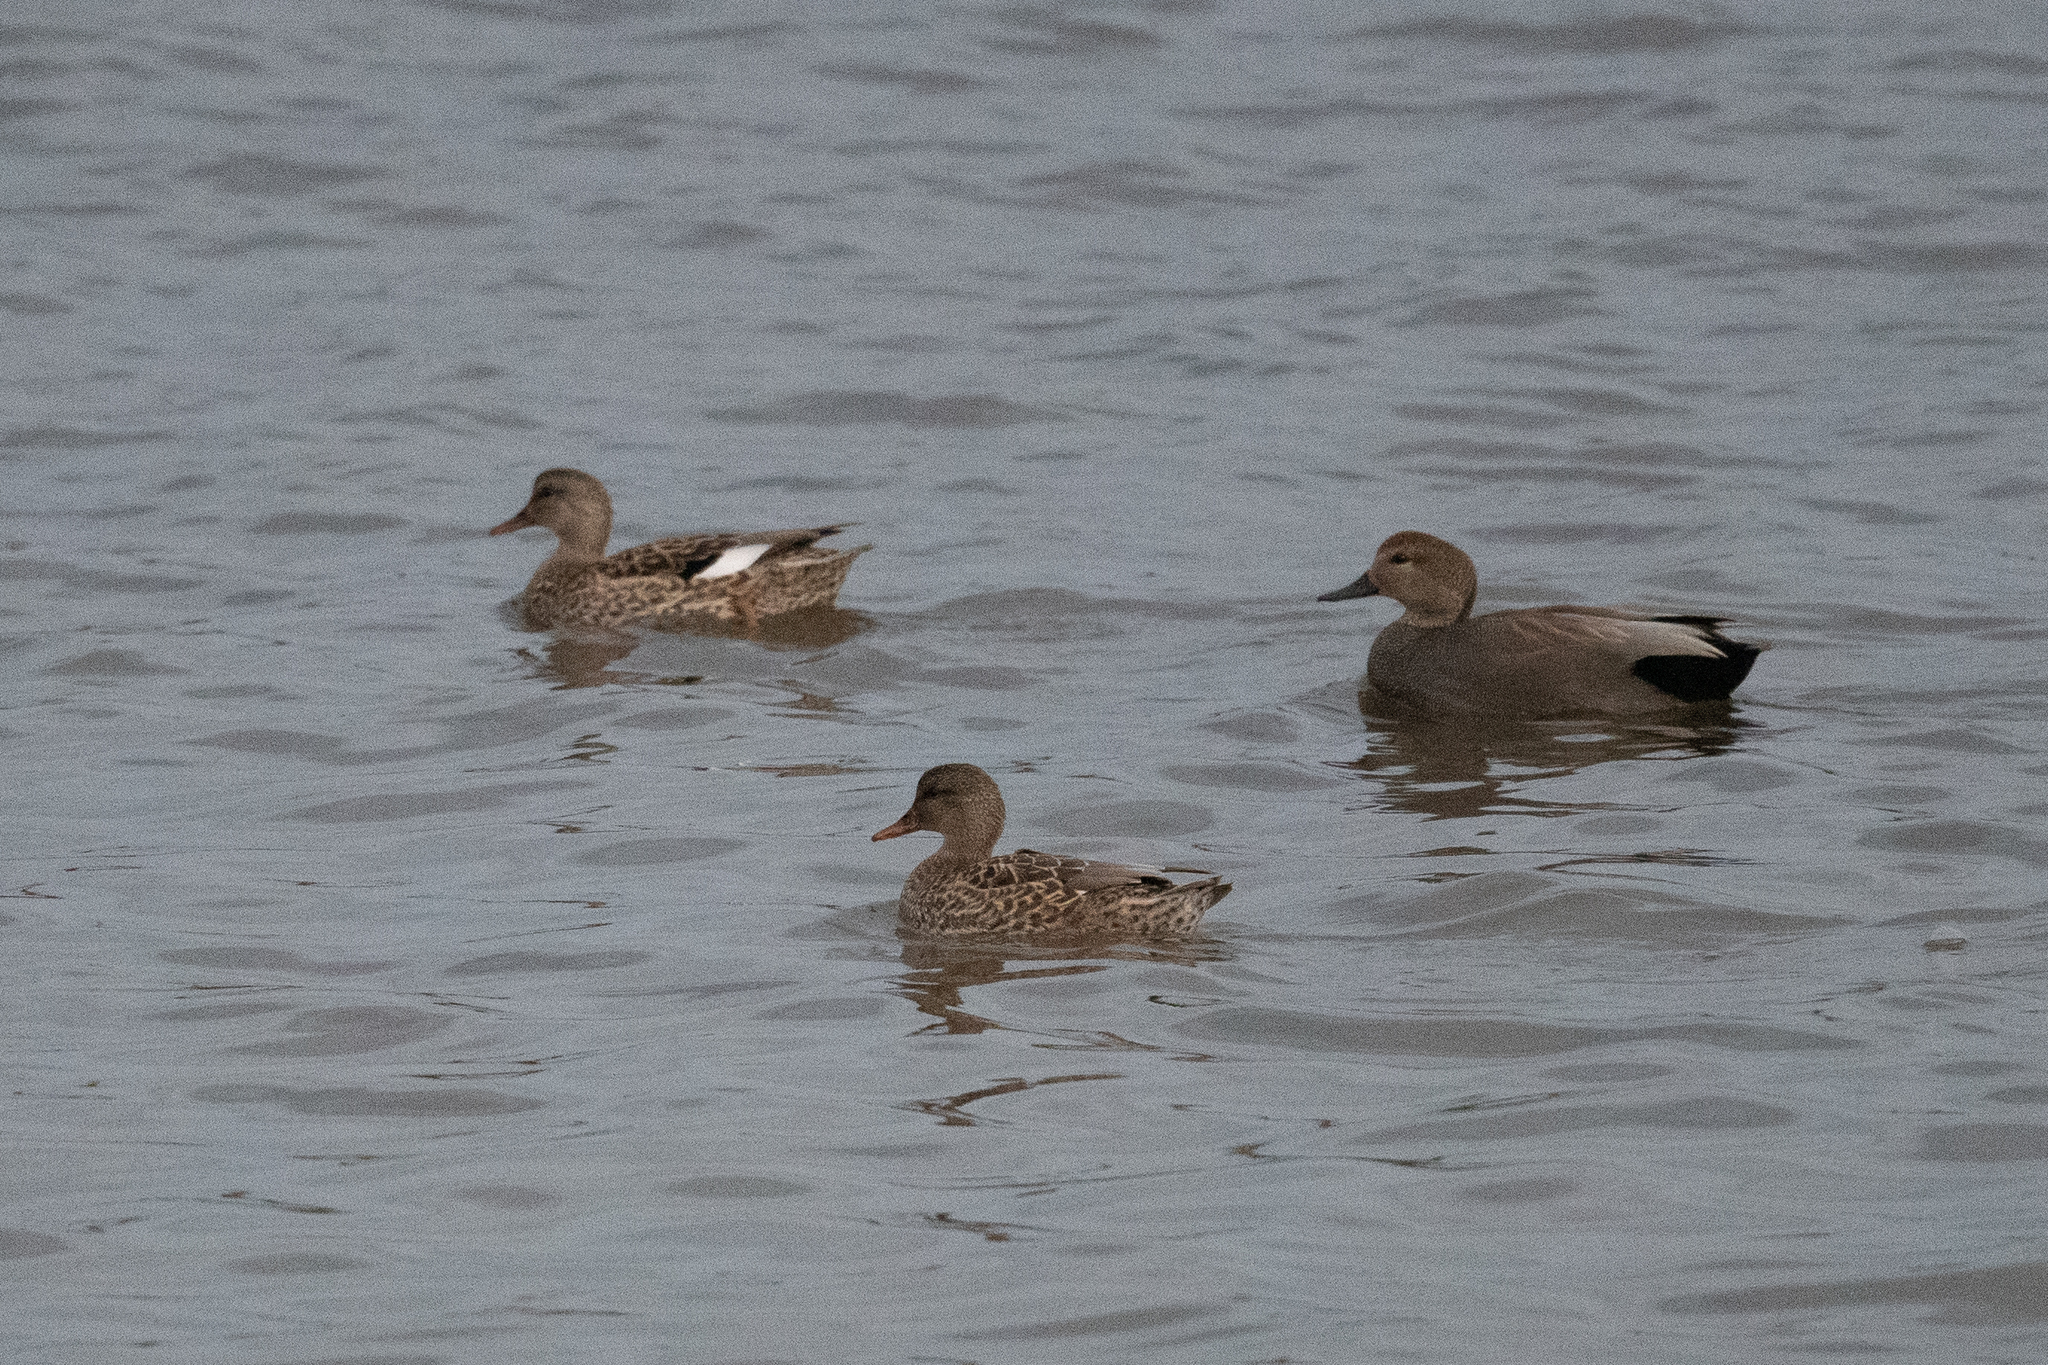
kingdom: Animalia
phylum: Chordata
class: Aves
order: Anseriformes
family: Anatidae
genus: Mareca
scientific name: Mareca strepera
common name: Gadwall
